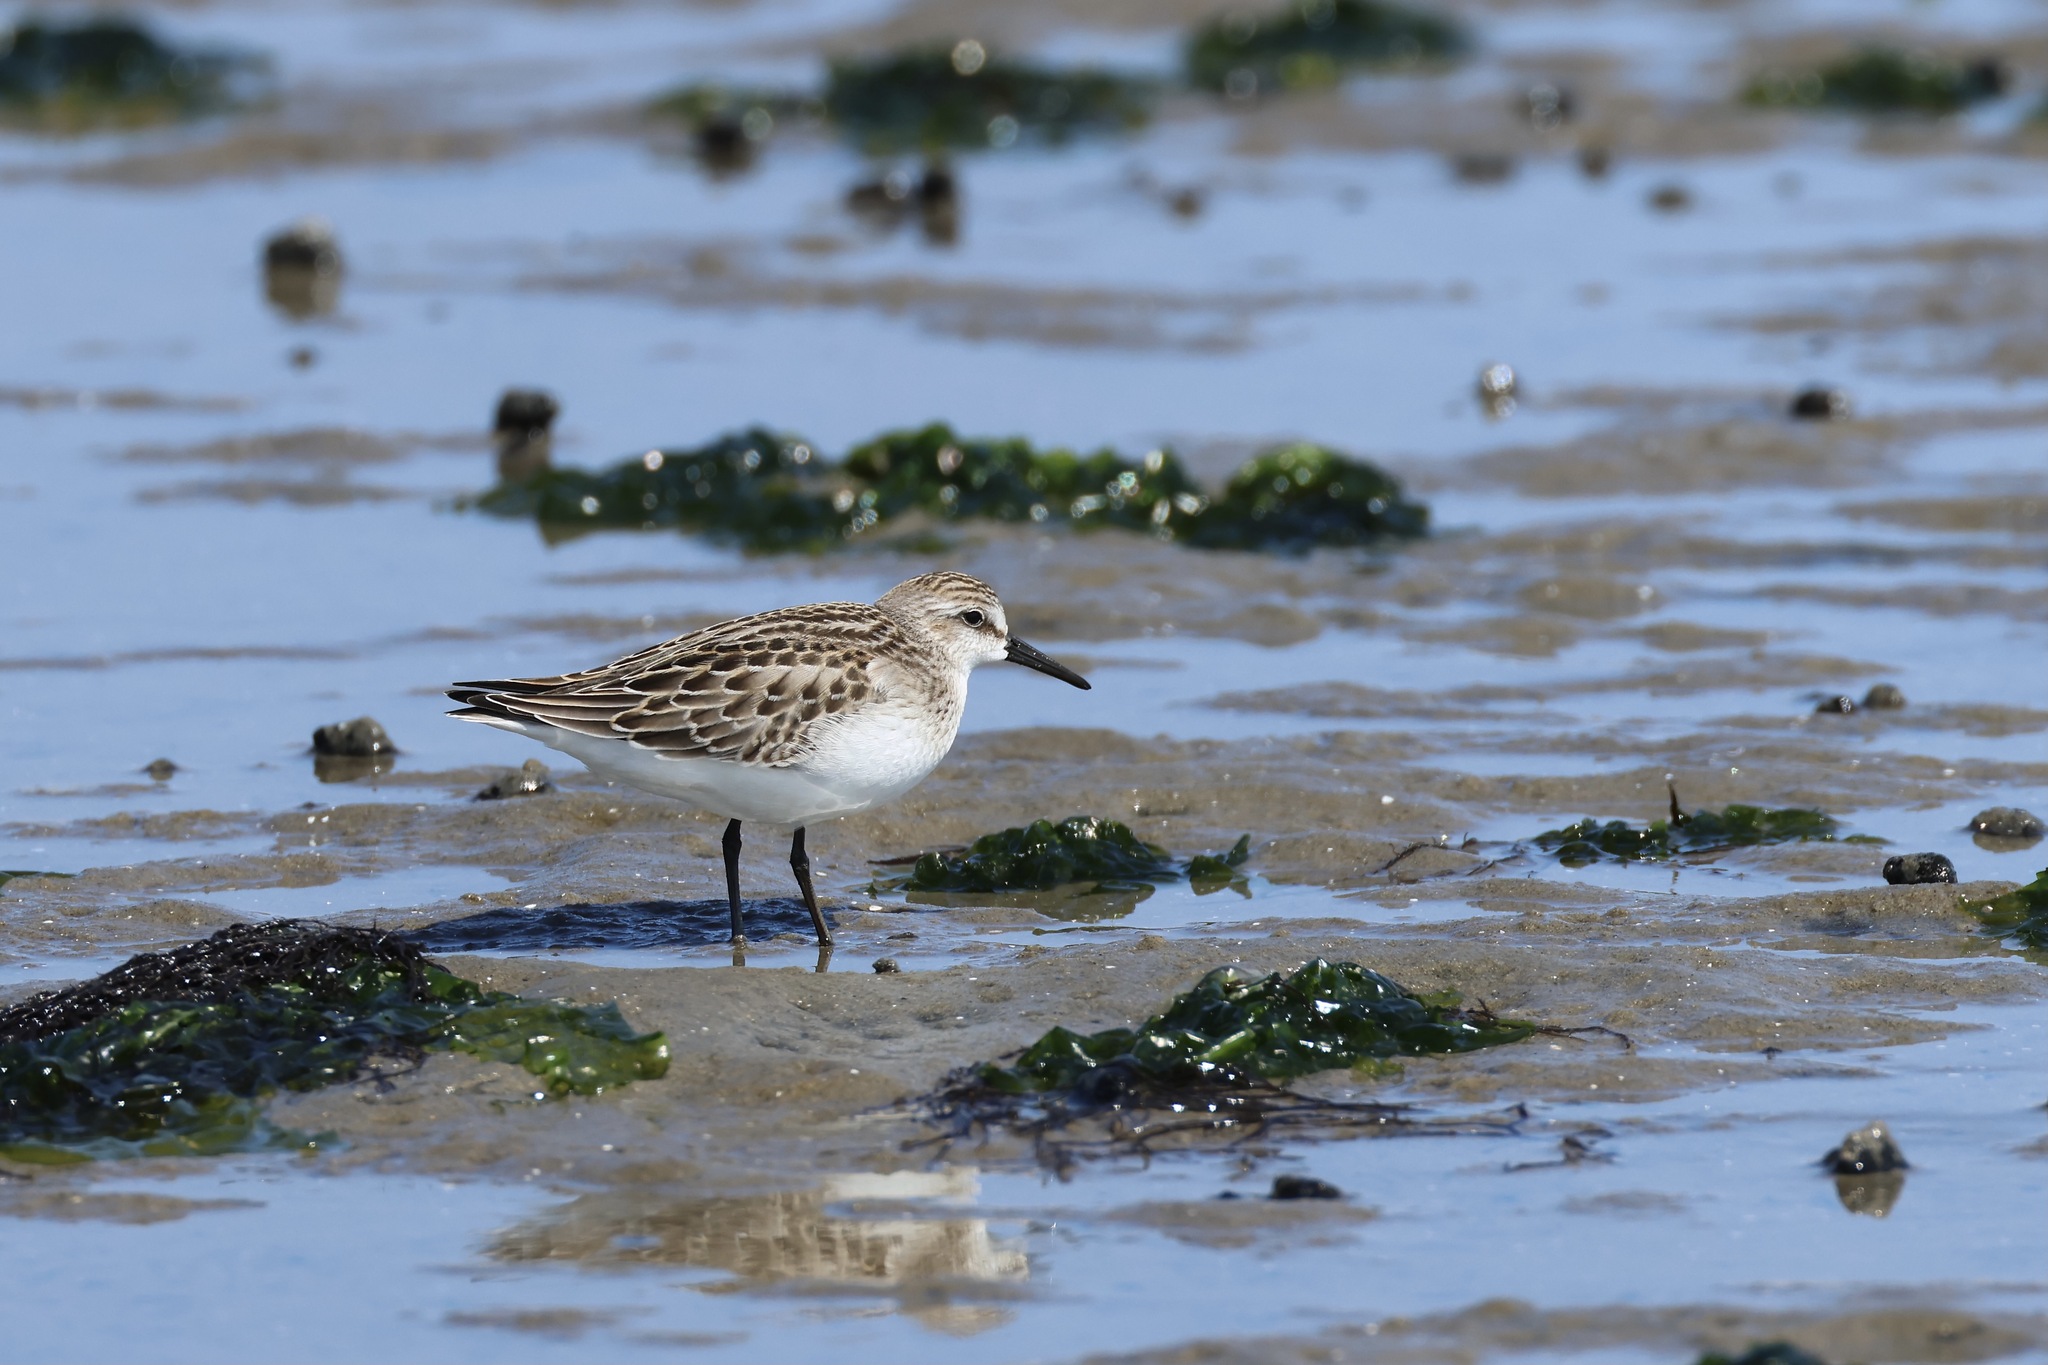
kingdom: Animalia
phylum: Chordata
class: Aves
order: Charadriiformes
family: Scolopacidae
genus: Calidris
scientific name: Calidris pusilla
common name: Semipalmated sandpiper
